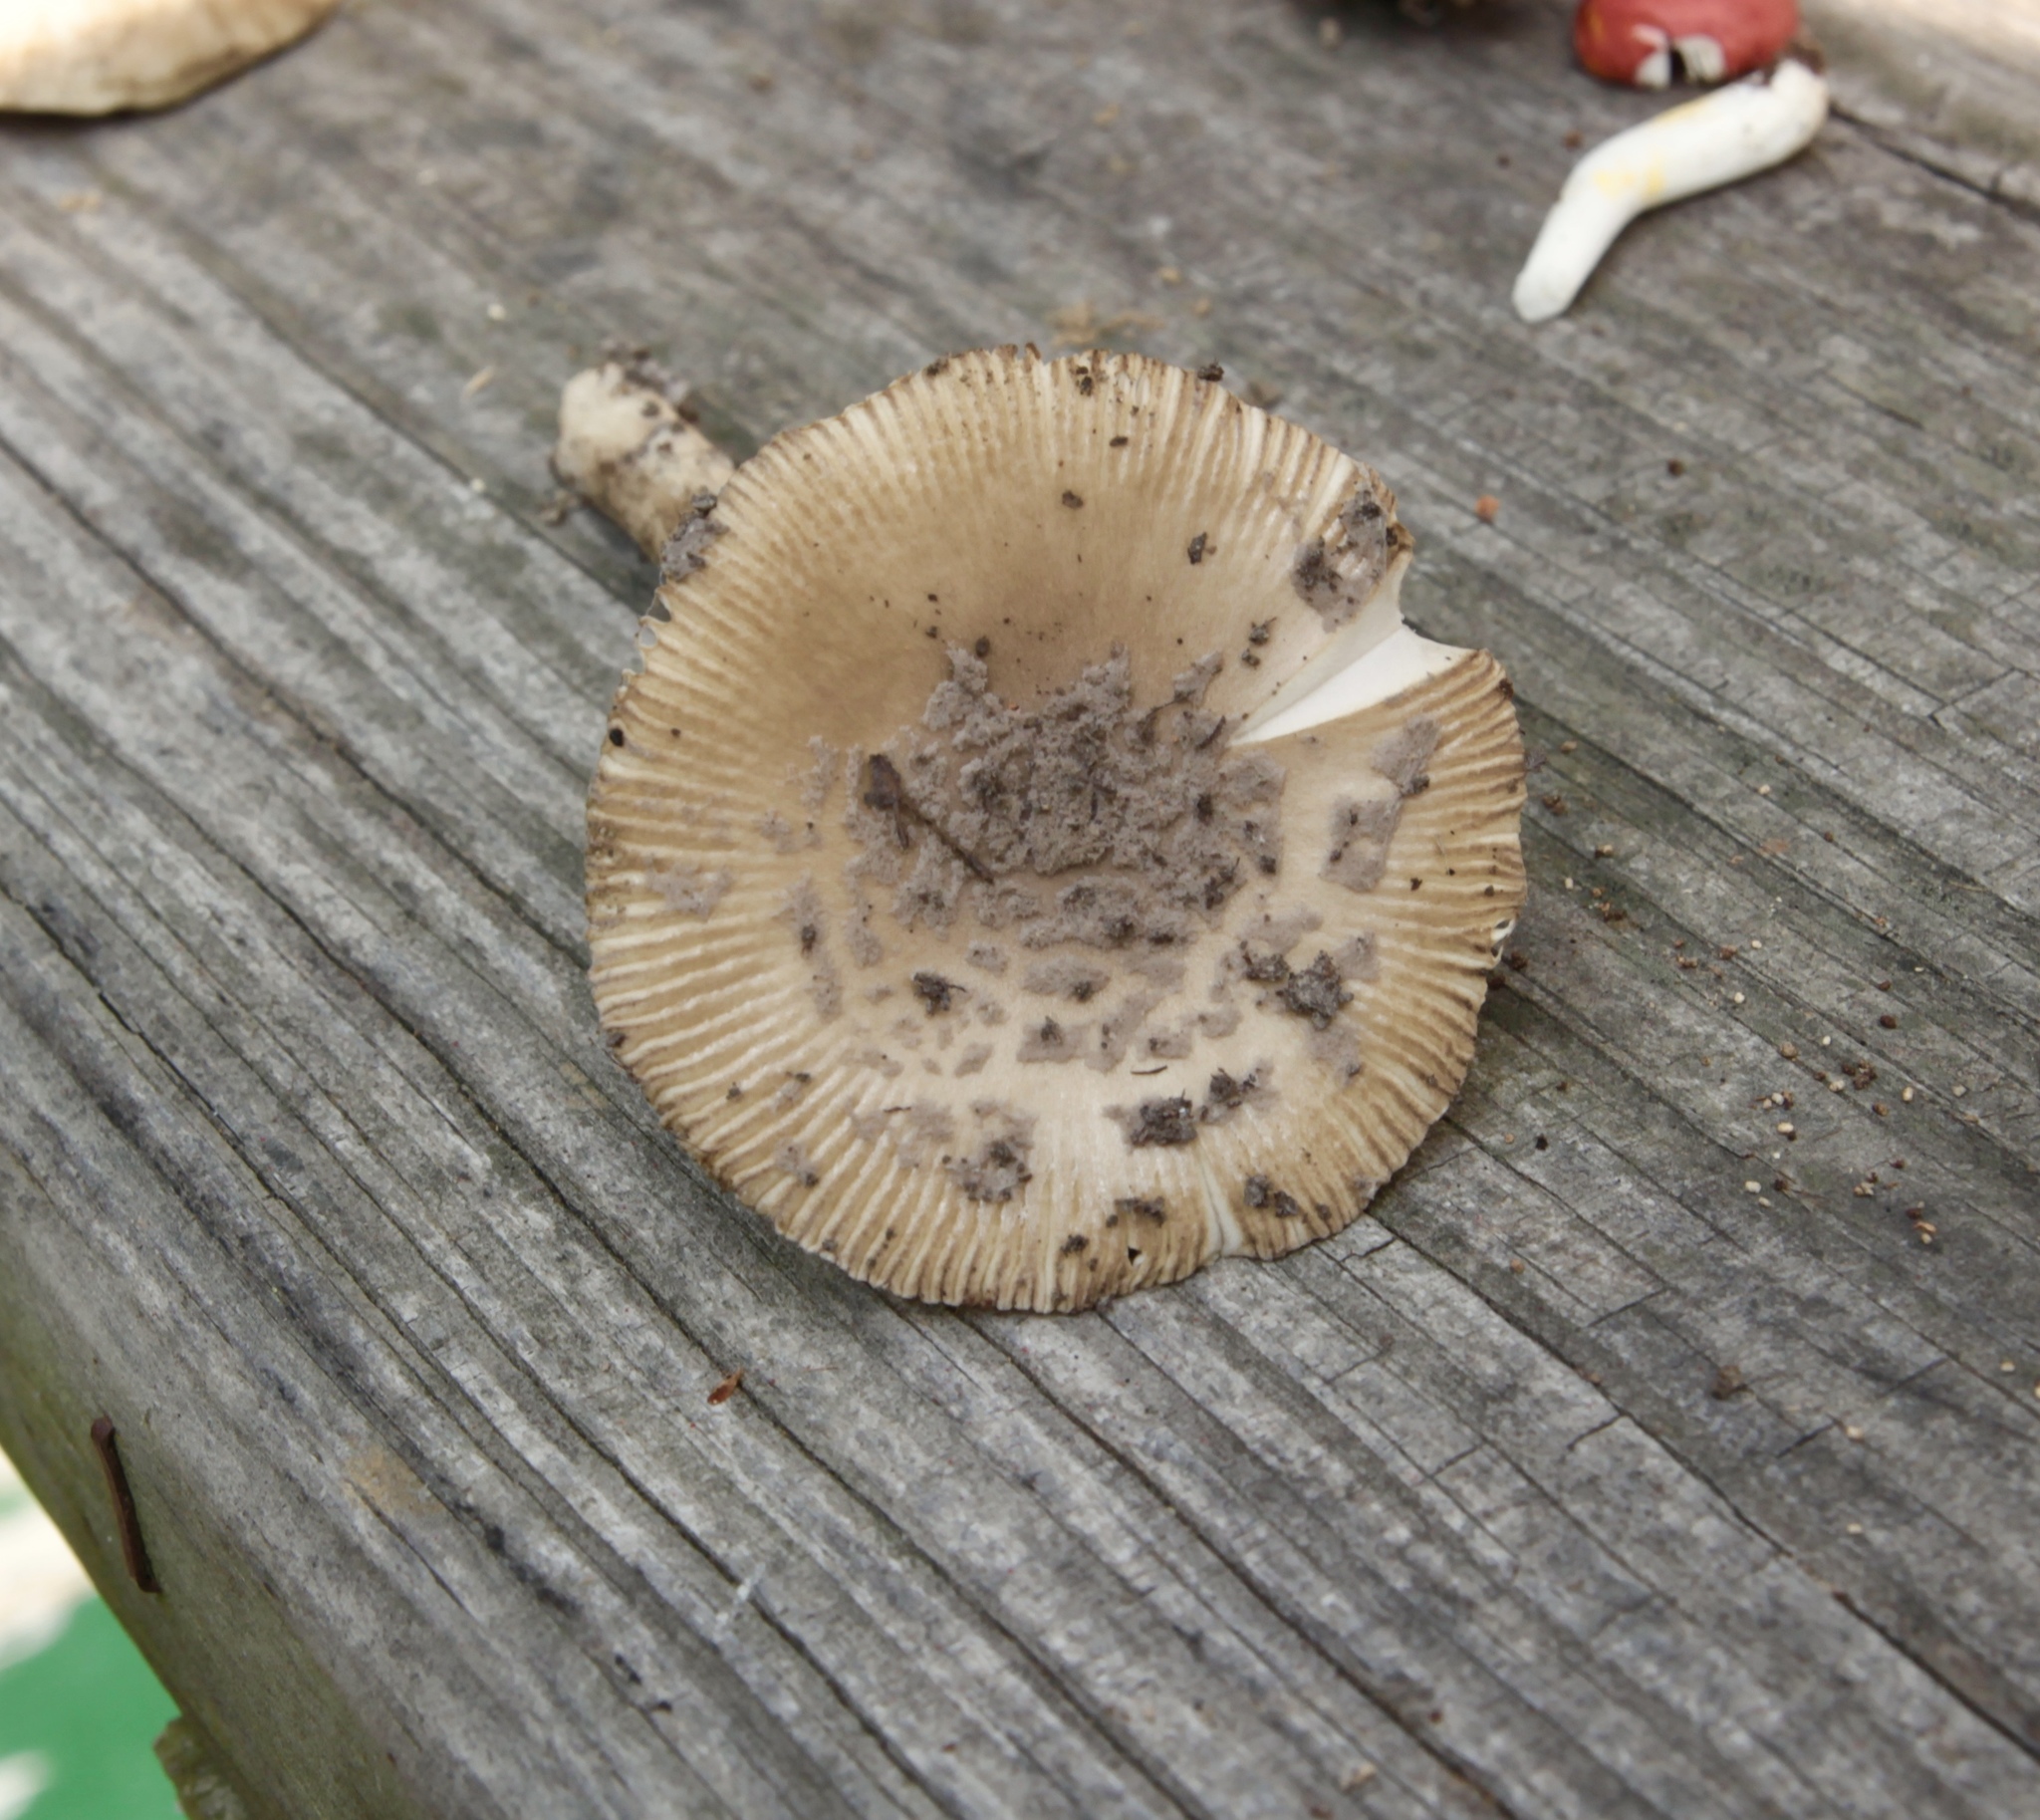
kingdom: Fungi
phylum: Basidiomycota
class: Agaricomycetes
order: Agaricales
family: Amanitaceae
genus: Amanita
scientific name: Amanita rhacopus
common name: Shaggy legged ringless amanita
